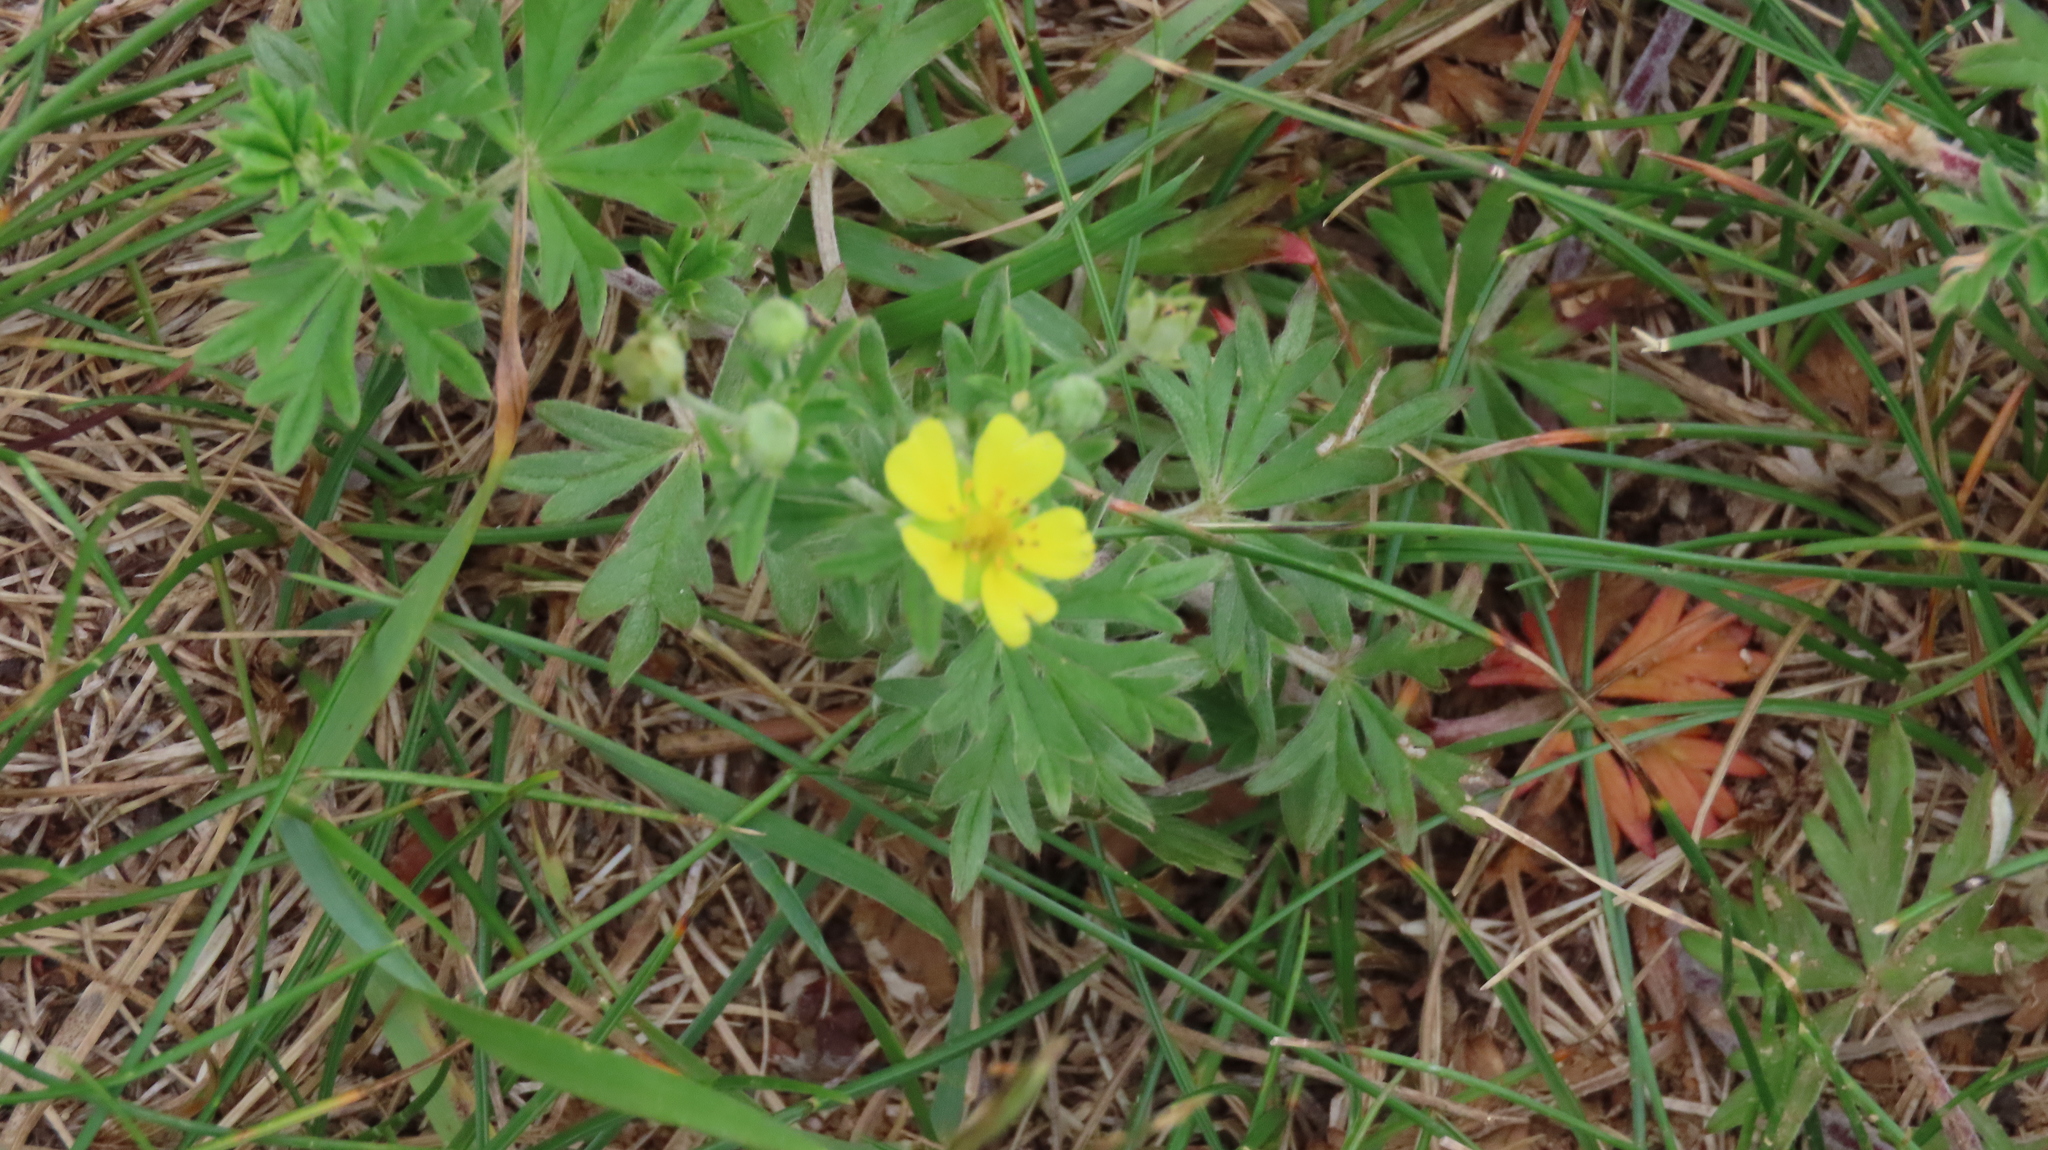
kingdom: Plantae
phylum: Tracheophyta
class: Magnoliopsida
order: Rosales
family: Rosaceae
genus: Potentilla
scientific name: Potentilla argentea
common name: Hoary cinquefoil
